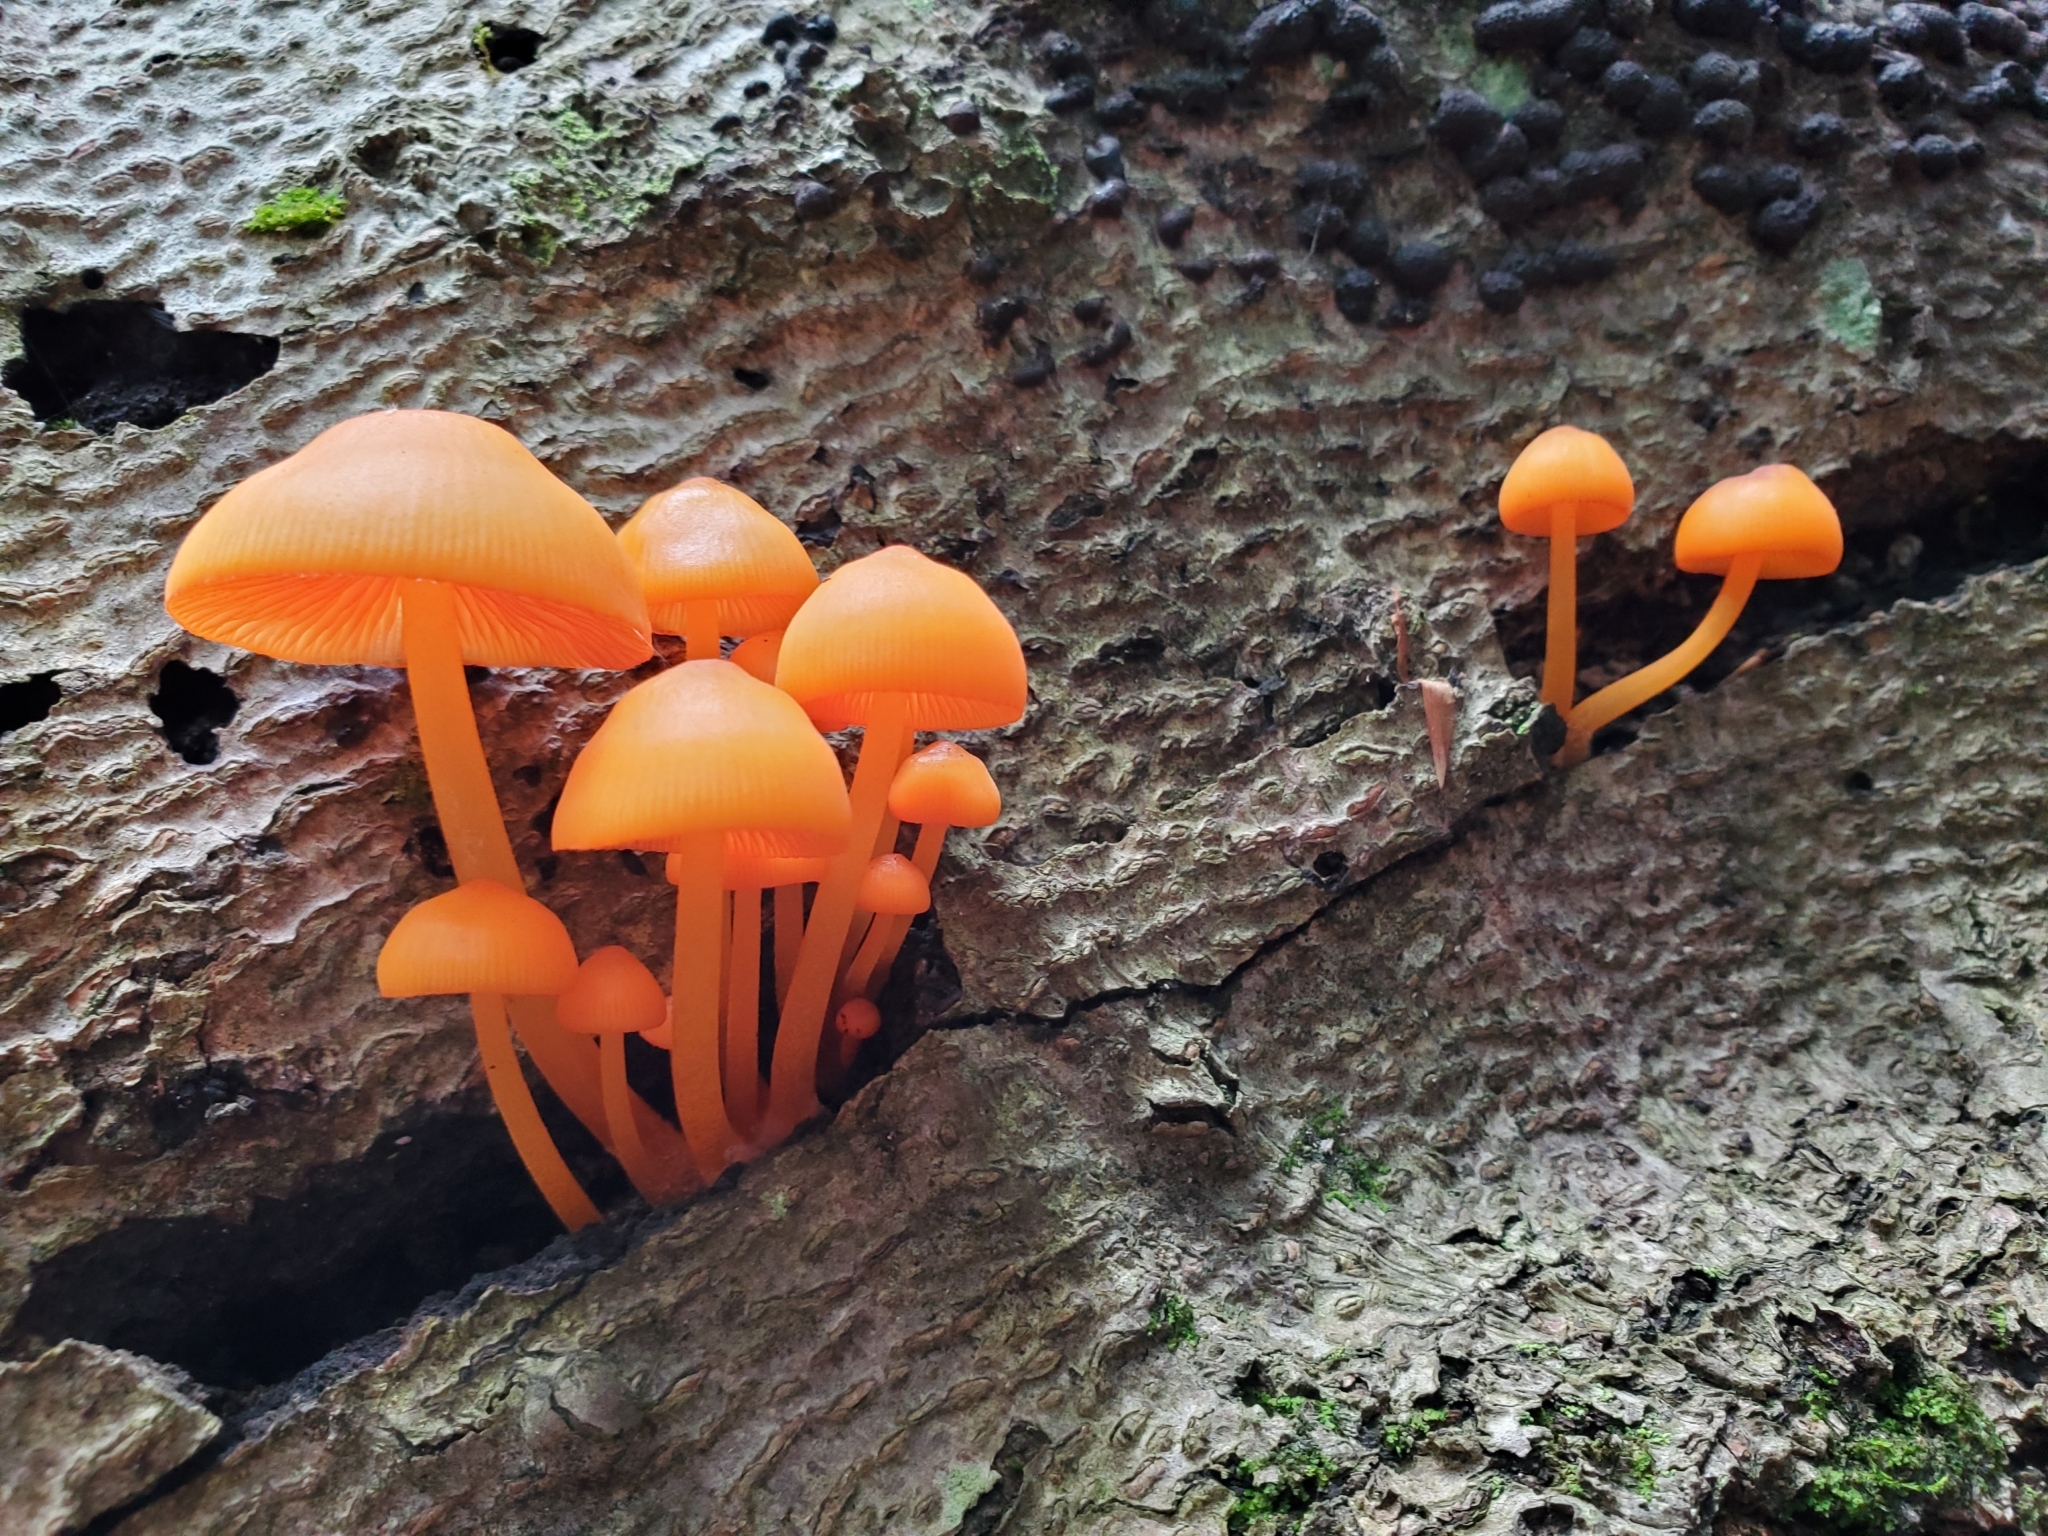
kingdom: Fungi
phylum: Basidiomycota
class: Agaricomycetes
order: Agaricales
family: Mycenaceae
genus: Mycena
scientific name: Mycena leaiana
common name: Orange mycena
